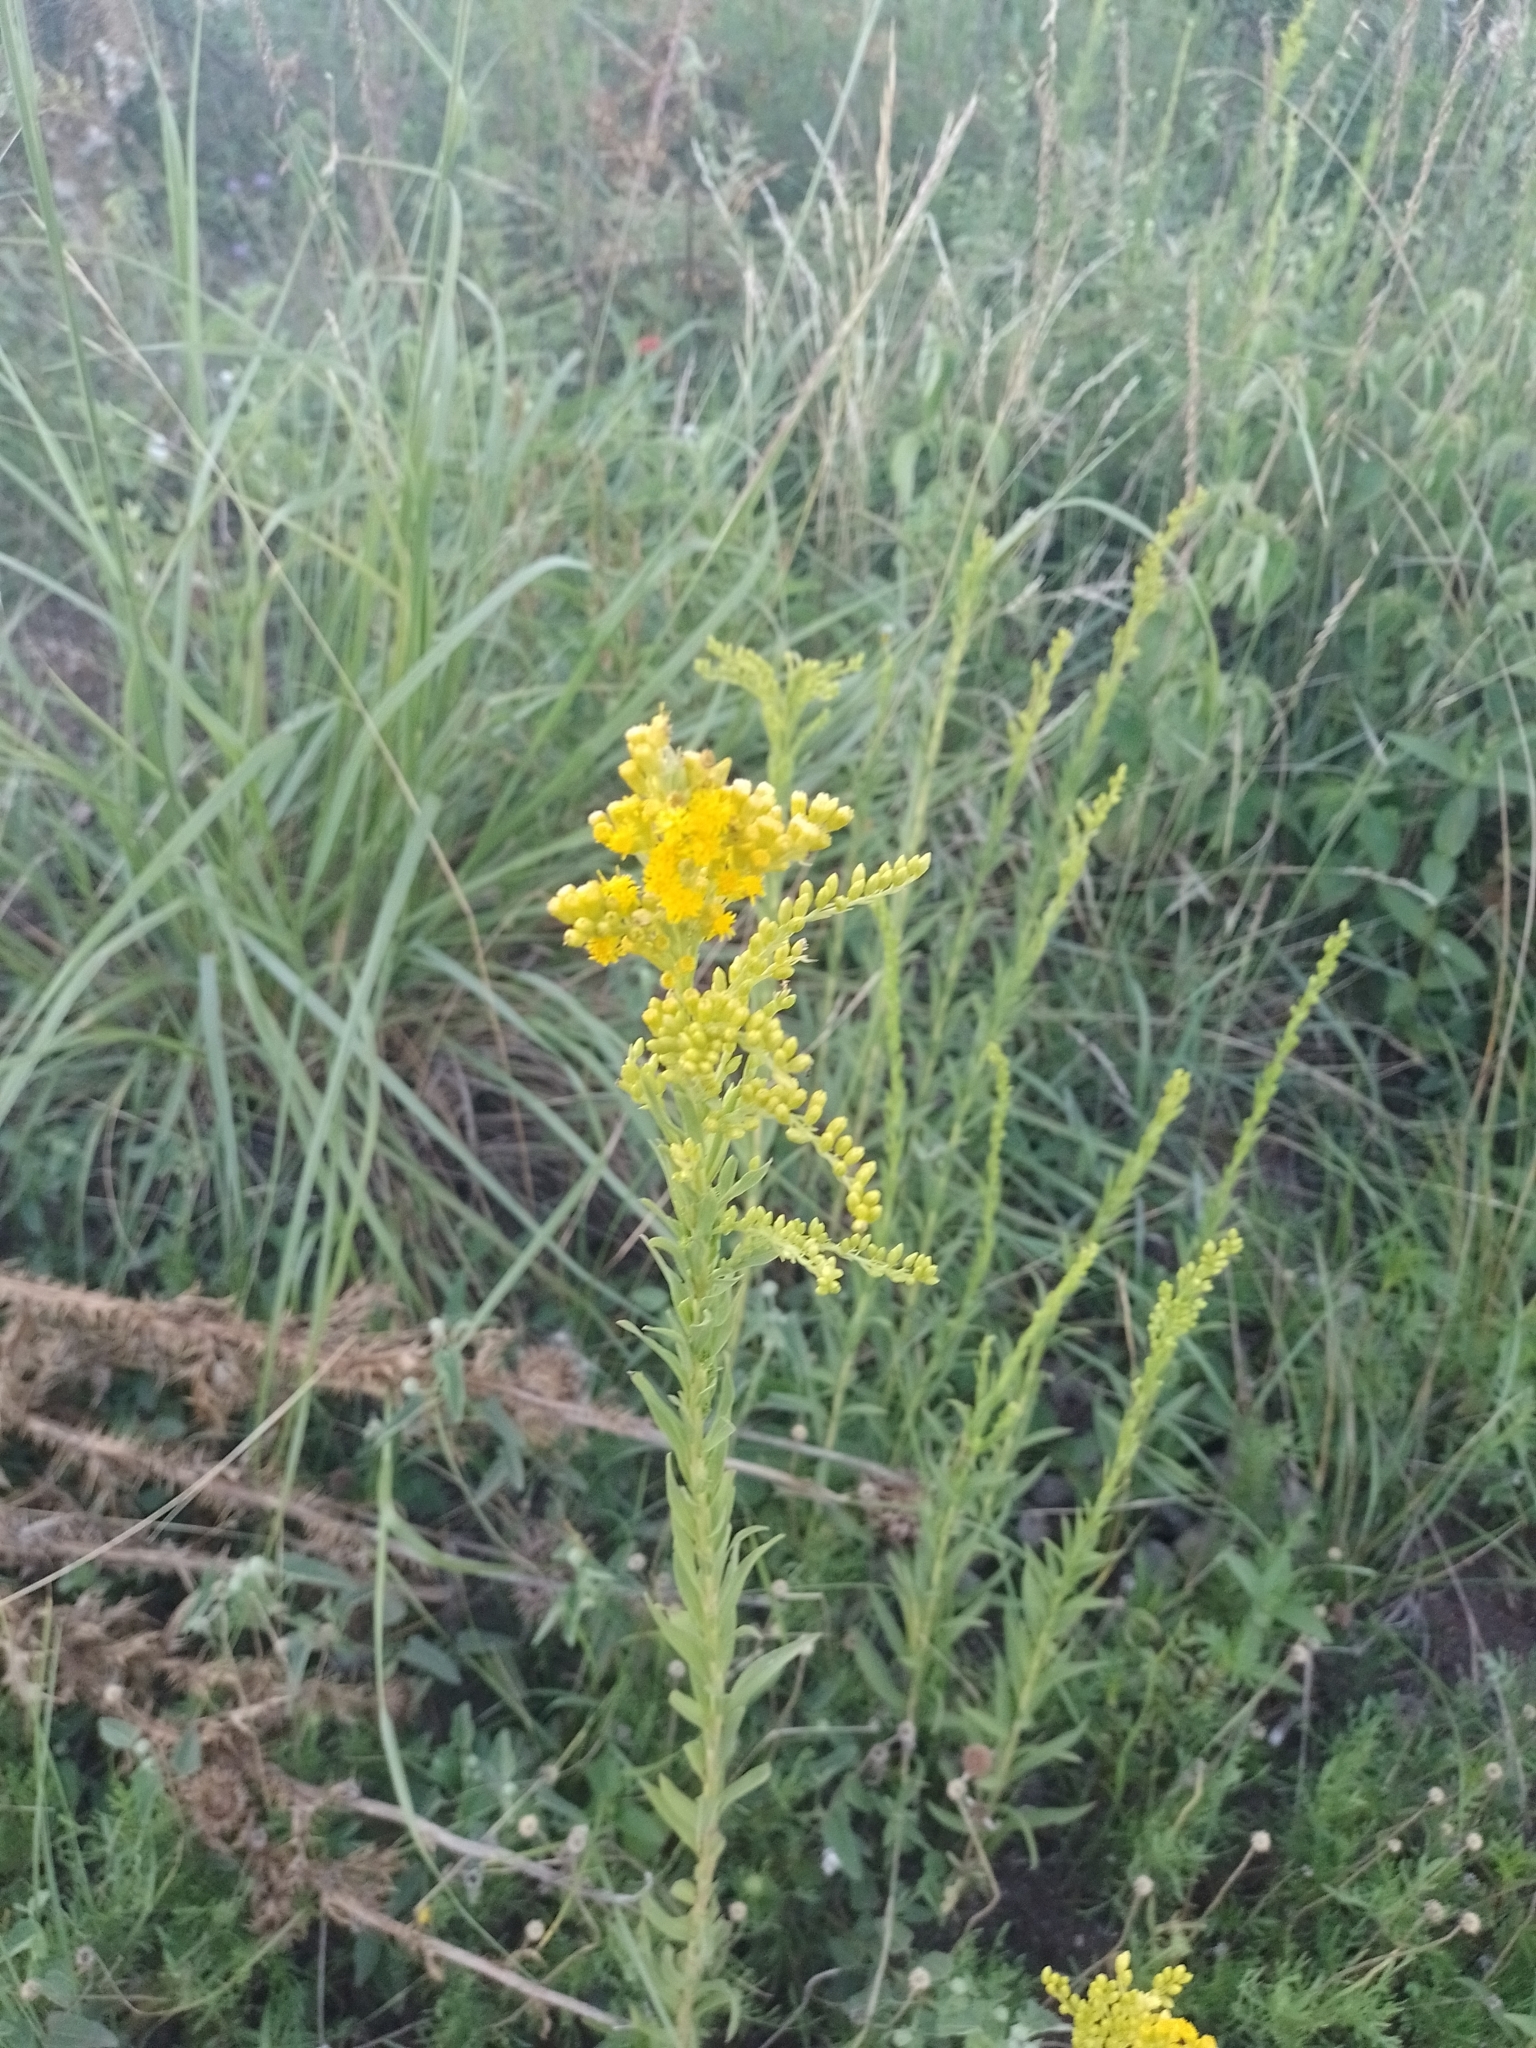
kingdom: Plantae
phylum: Tracheophyta
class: Magnoliopsida
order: Asterales
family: Asteraceae
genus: Solidago
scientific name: Solidago chilensis
